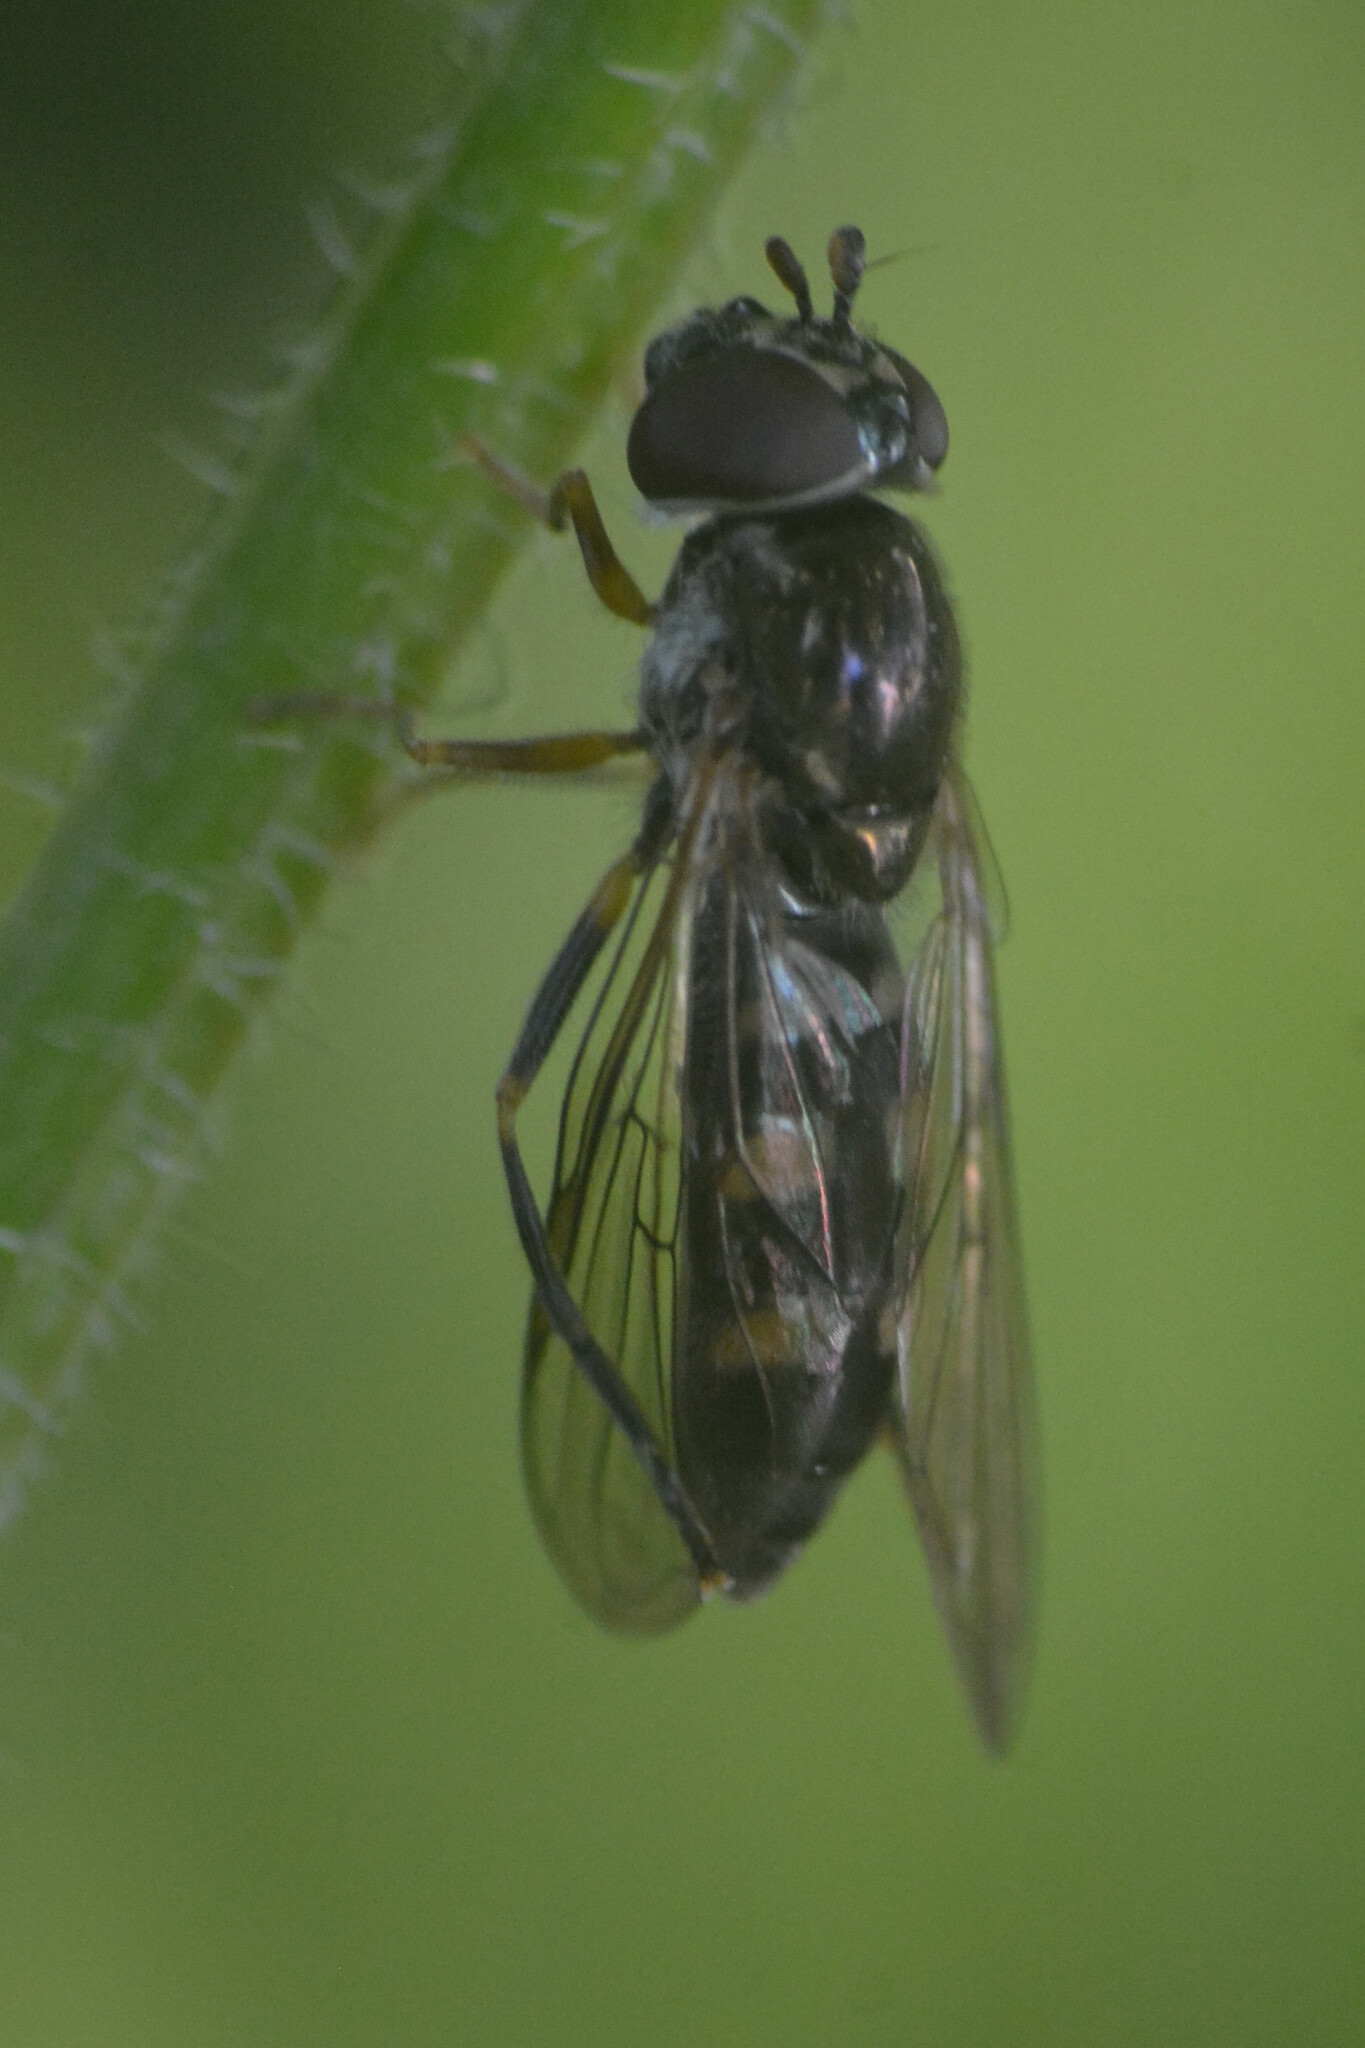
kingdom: Animalia
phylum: Arthropoda
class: Insecta
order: Diptera
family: Syrphidae
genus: Platycheirus
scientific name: Platycheirus
